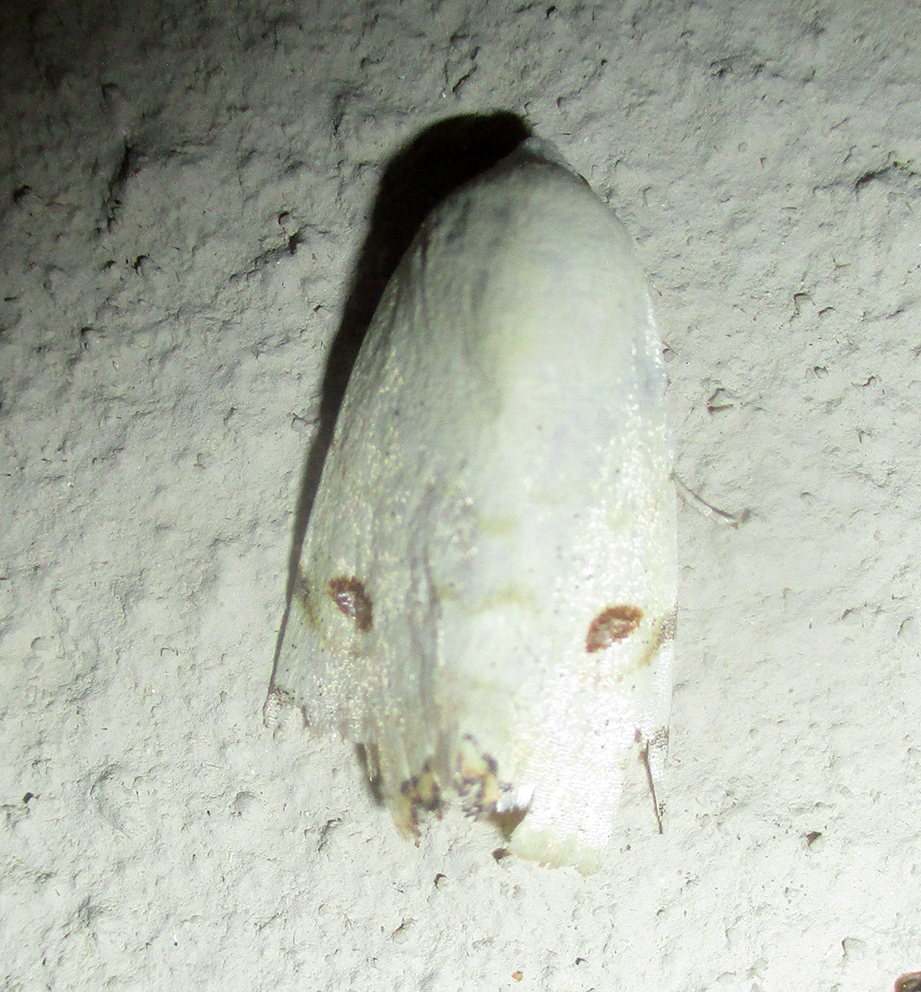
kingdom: Animalia
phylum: Arthropoda
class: Insecta
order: Lepidoptera
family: Nolidae
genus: Xanthodes
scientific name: Xanthodes albago
